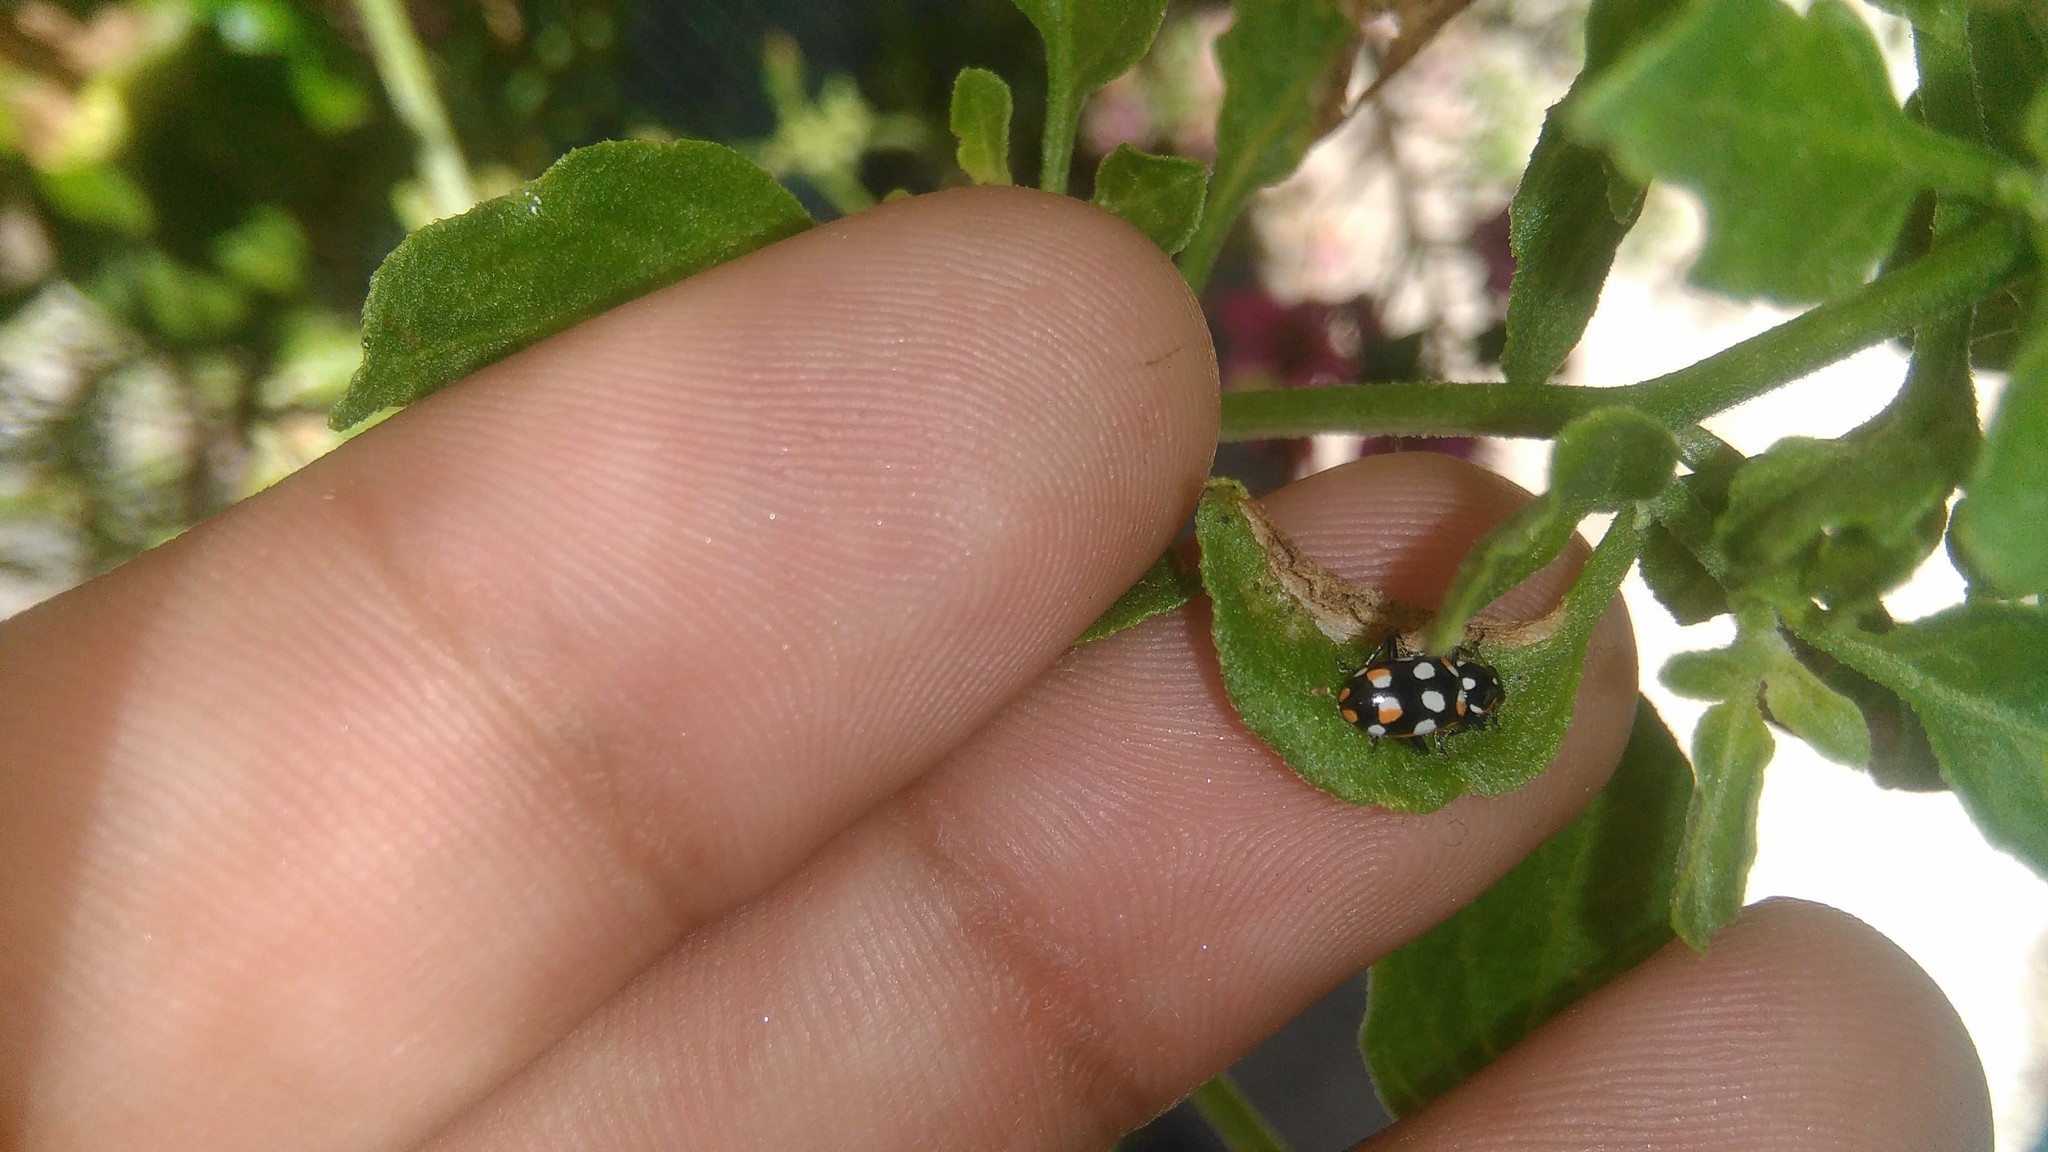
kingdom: Animalia
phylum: Arthropoda
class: Insecta
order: Coleoptera
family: Coccinellidae
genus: Eriopis
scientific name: Eriopis connexa
